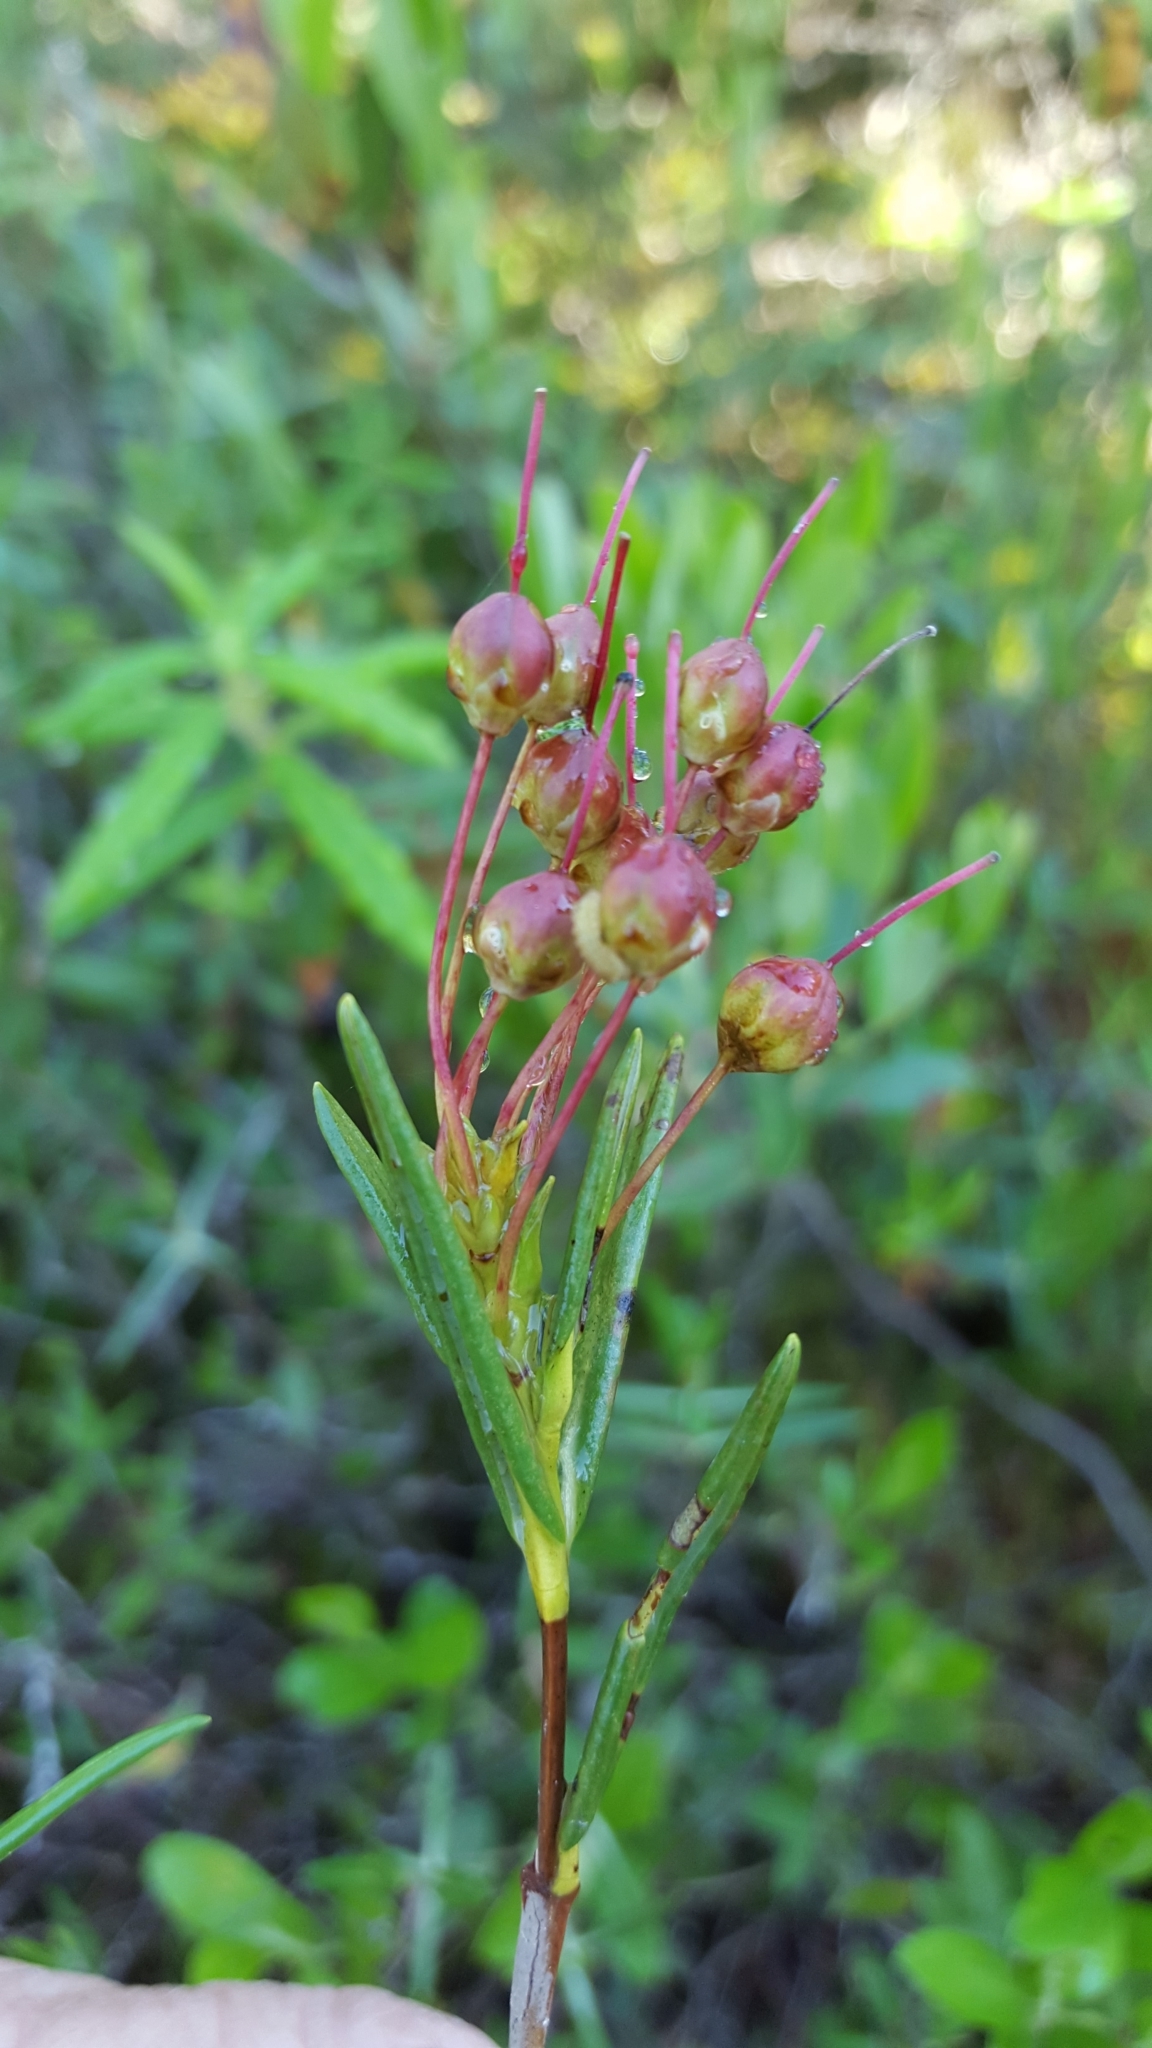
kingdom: Plantae
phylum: Tracheophyta
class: Magnoliopsida
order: Ericales
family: Ericaceae
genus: Kalmia
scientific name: Kalmia polifolia
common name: Bog-laurel
